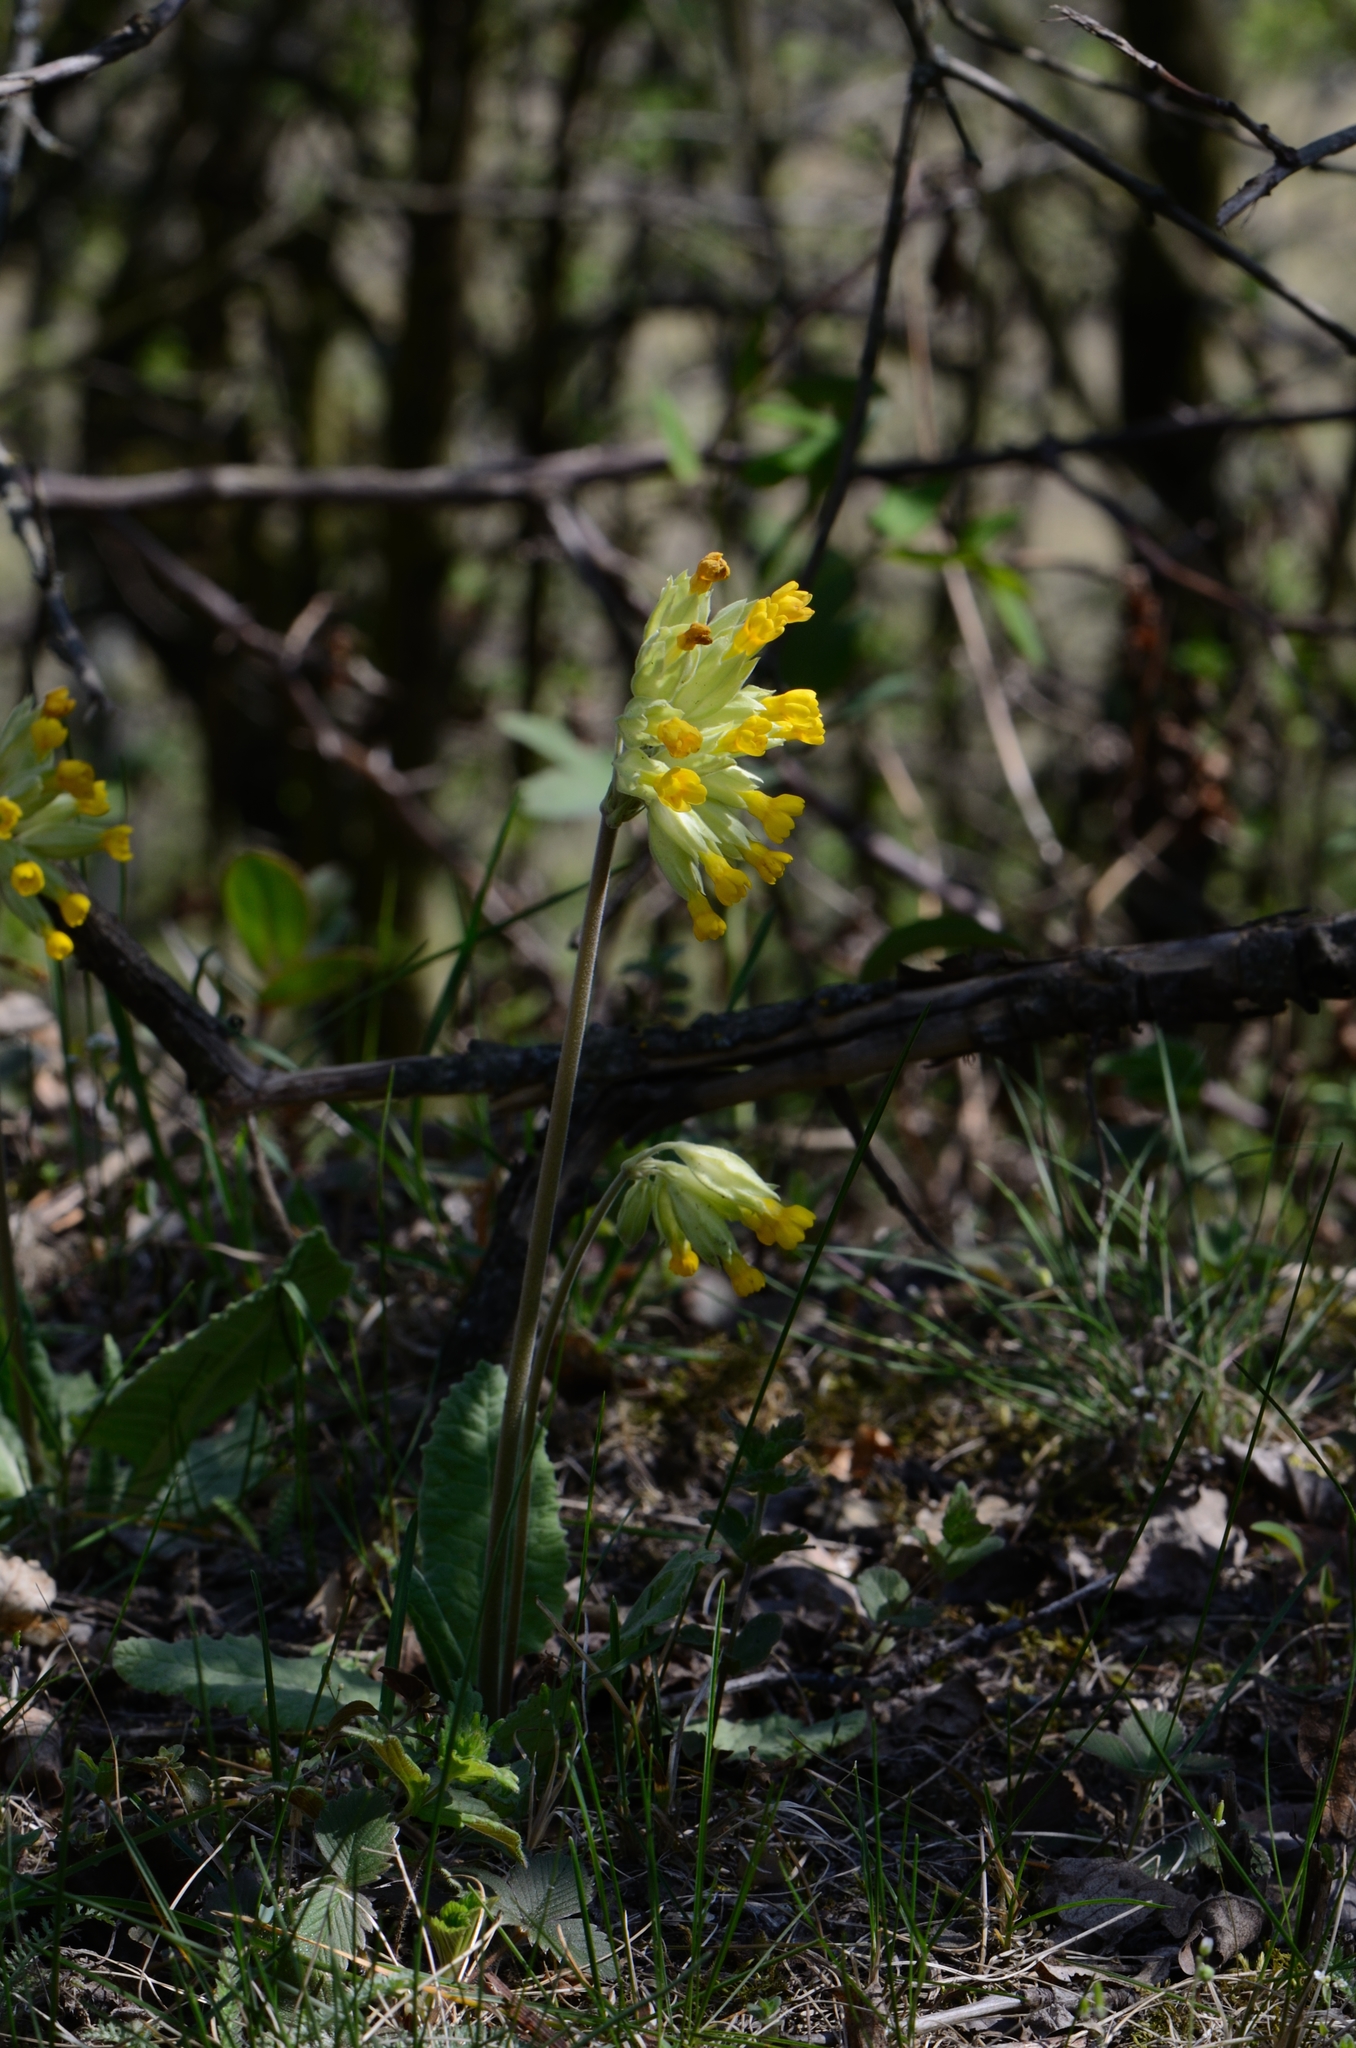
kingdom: Plantae
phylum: Tracheophyta
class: Magnoliopsida
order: Ericales
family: Primulaceae
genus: Primula
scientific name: Primula veris
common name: Cowslip
